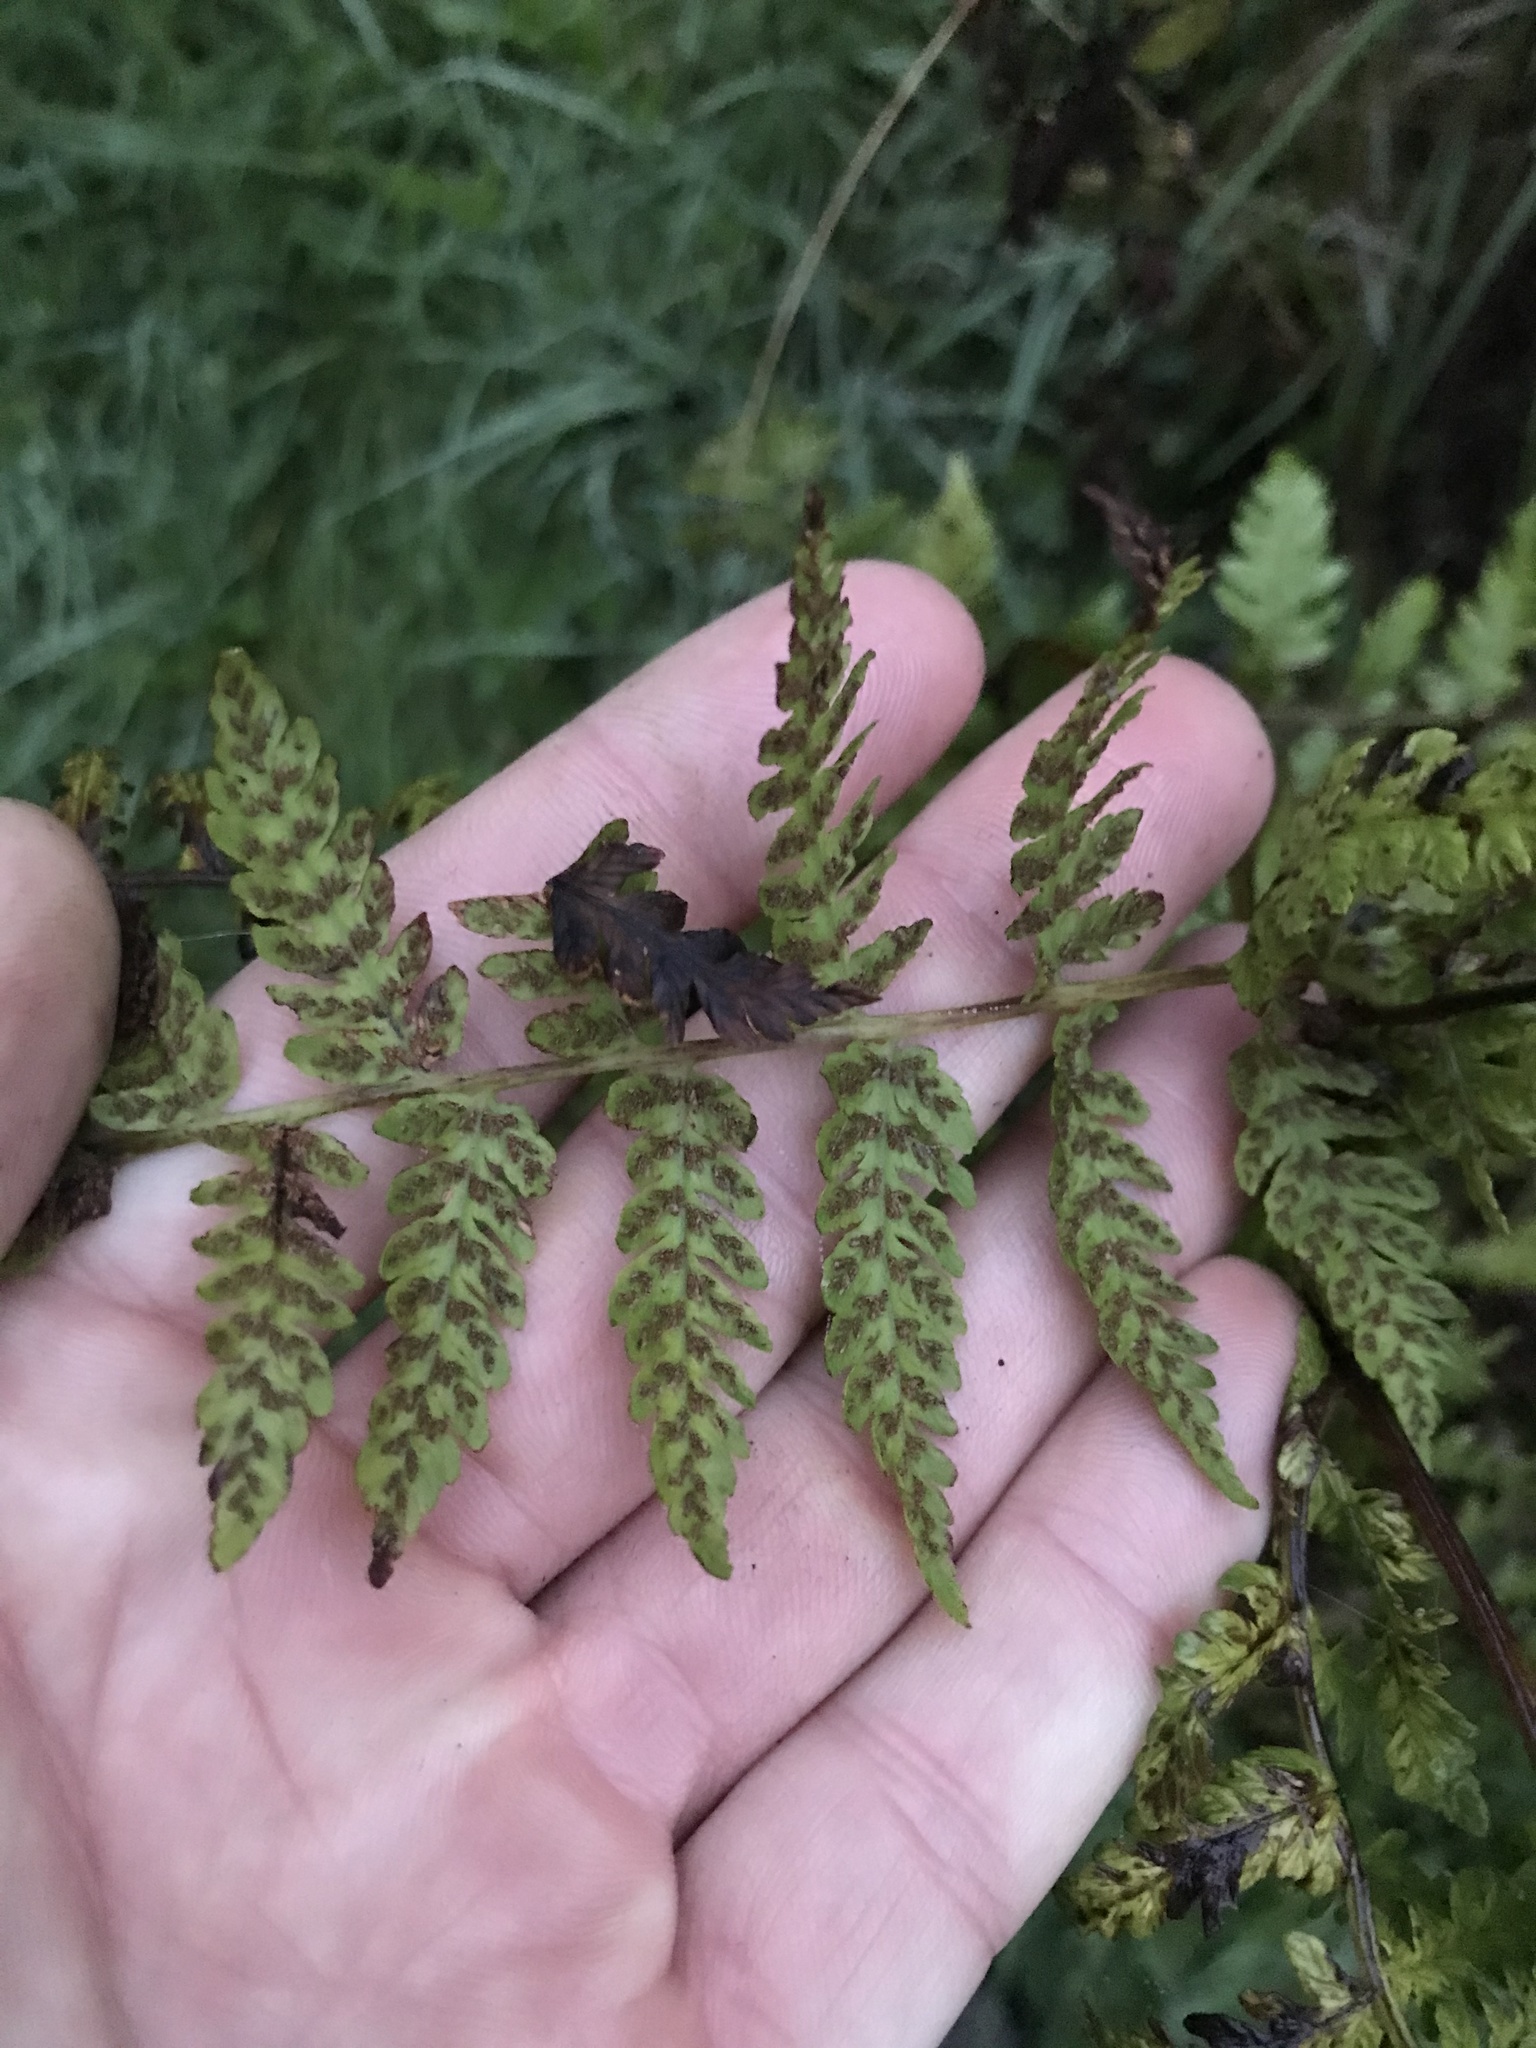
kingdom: Plantae
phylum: Tracheophyta
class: Polypodiopsida
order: Polypodiales
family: Athyriaceae
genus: Diplazium
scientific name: Diplazium australe
